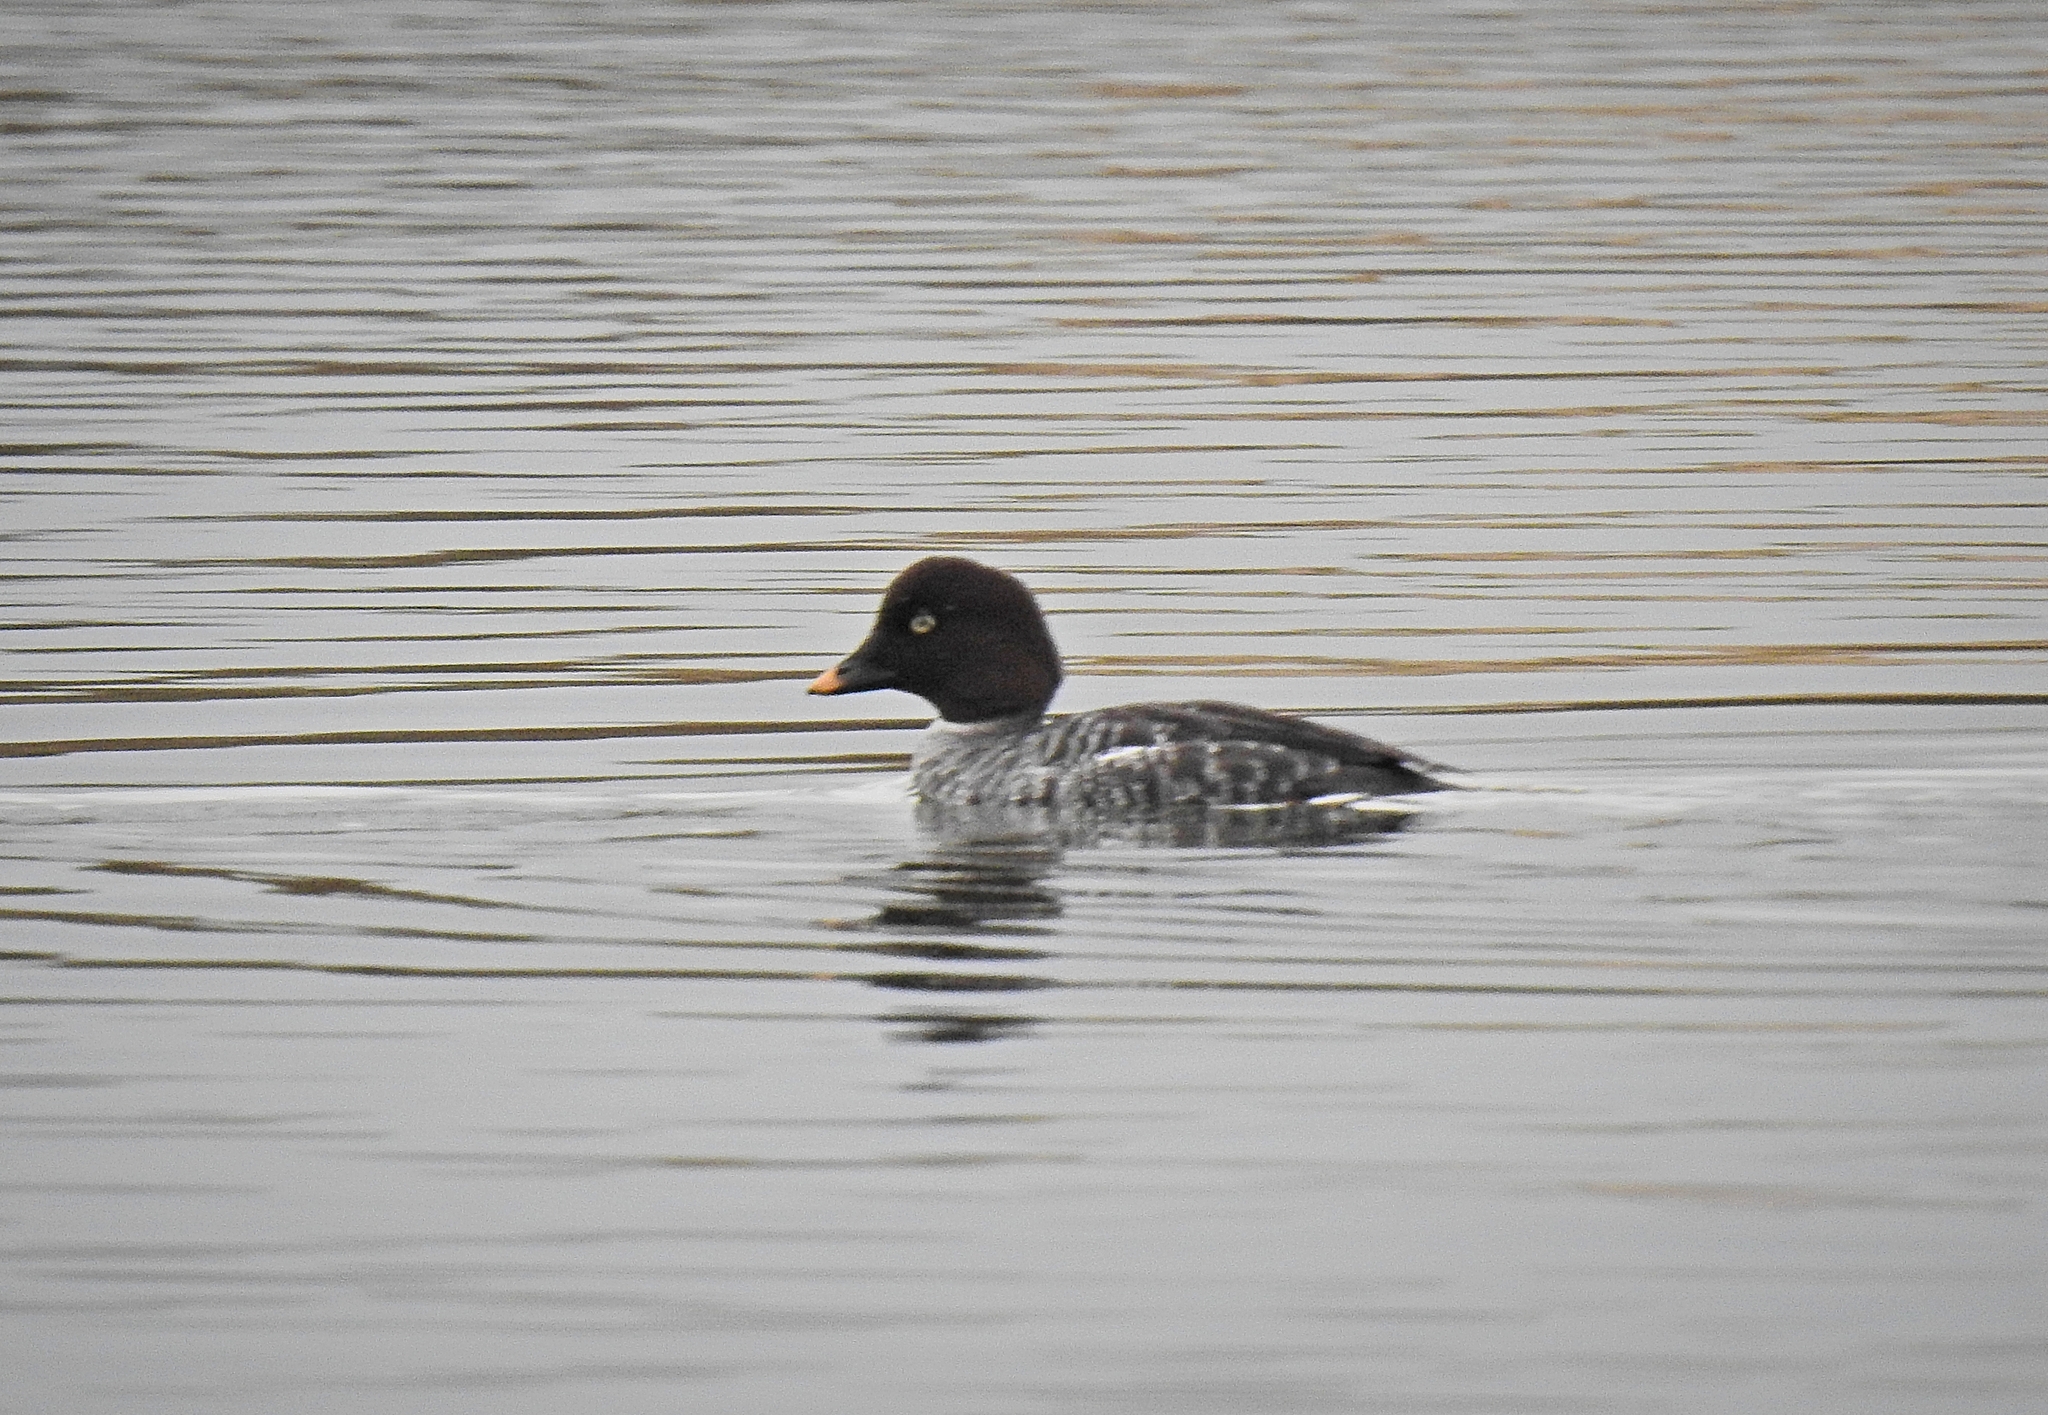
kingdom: Animalia
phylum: Chordata
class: Aves
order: Anseriformes
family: Anatidae
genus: Bucephala
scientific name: Bucephala clangula
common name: Common goldeneye
